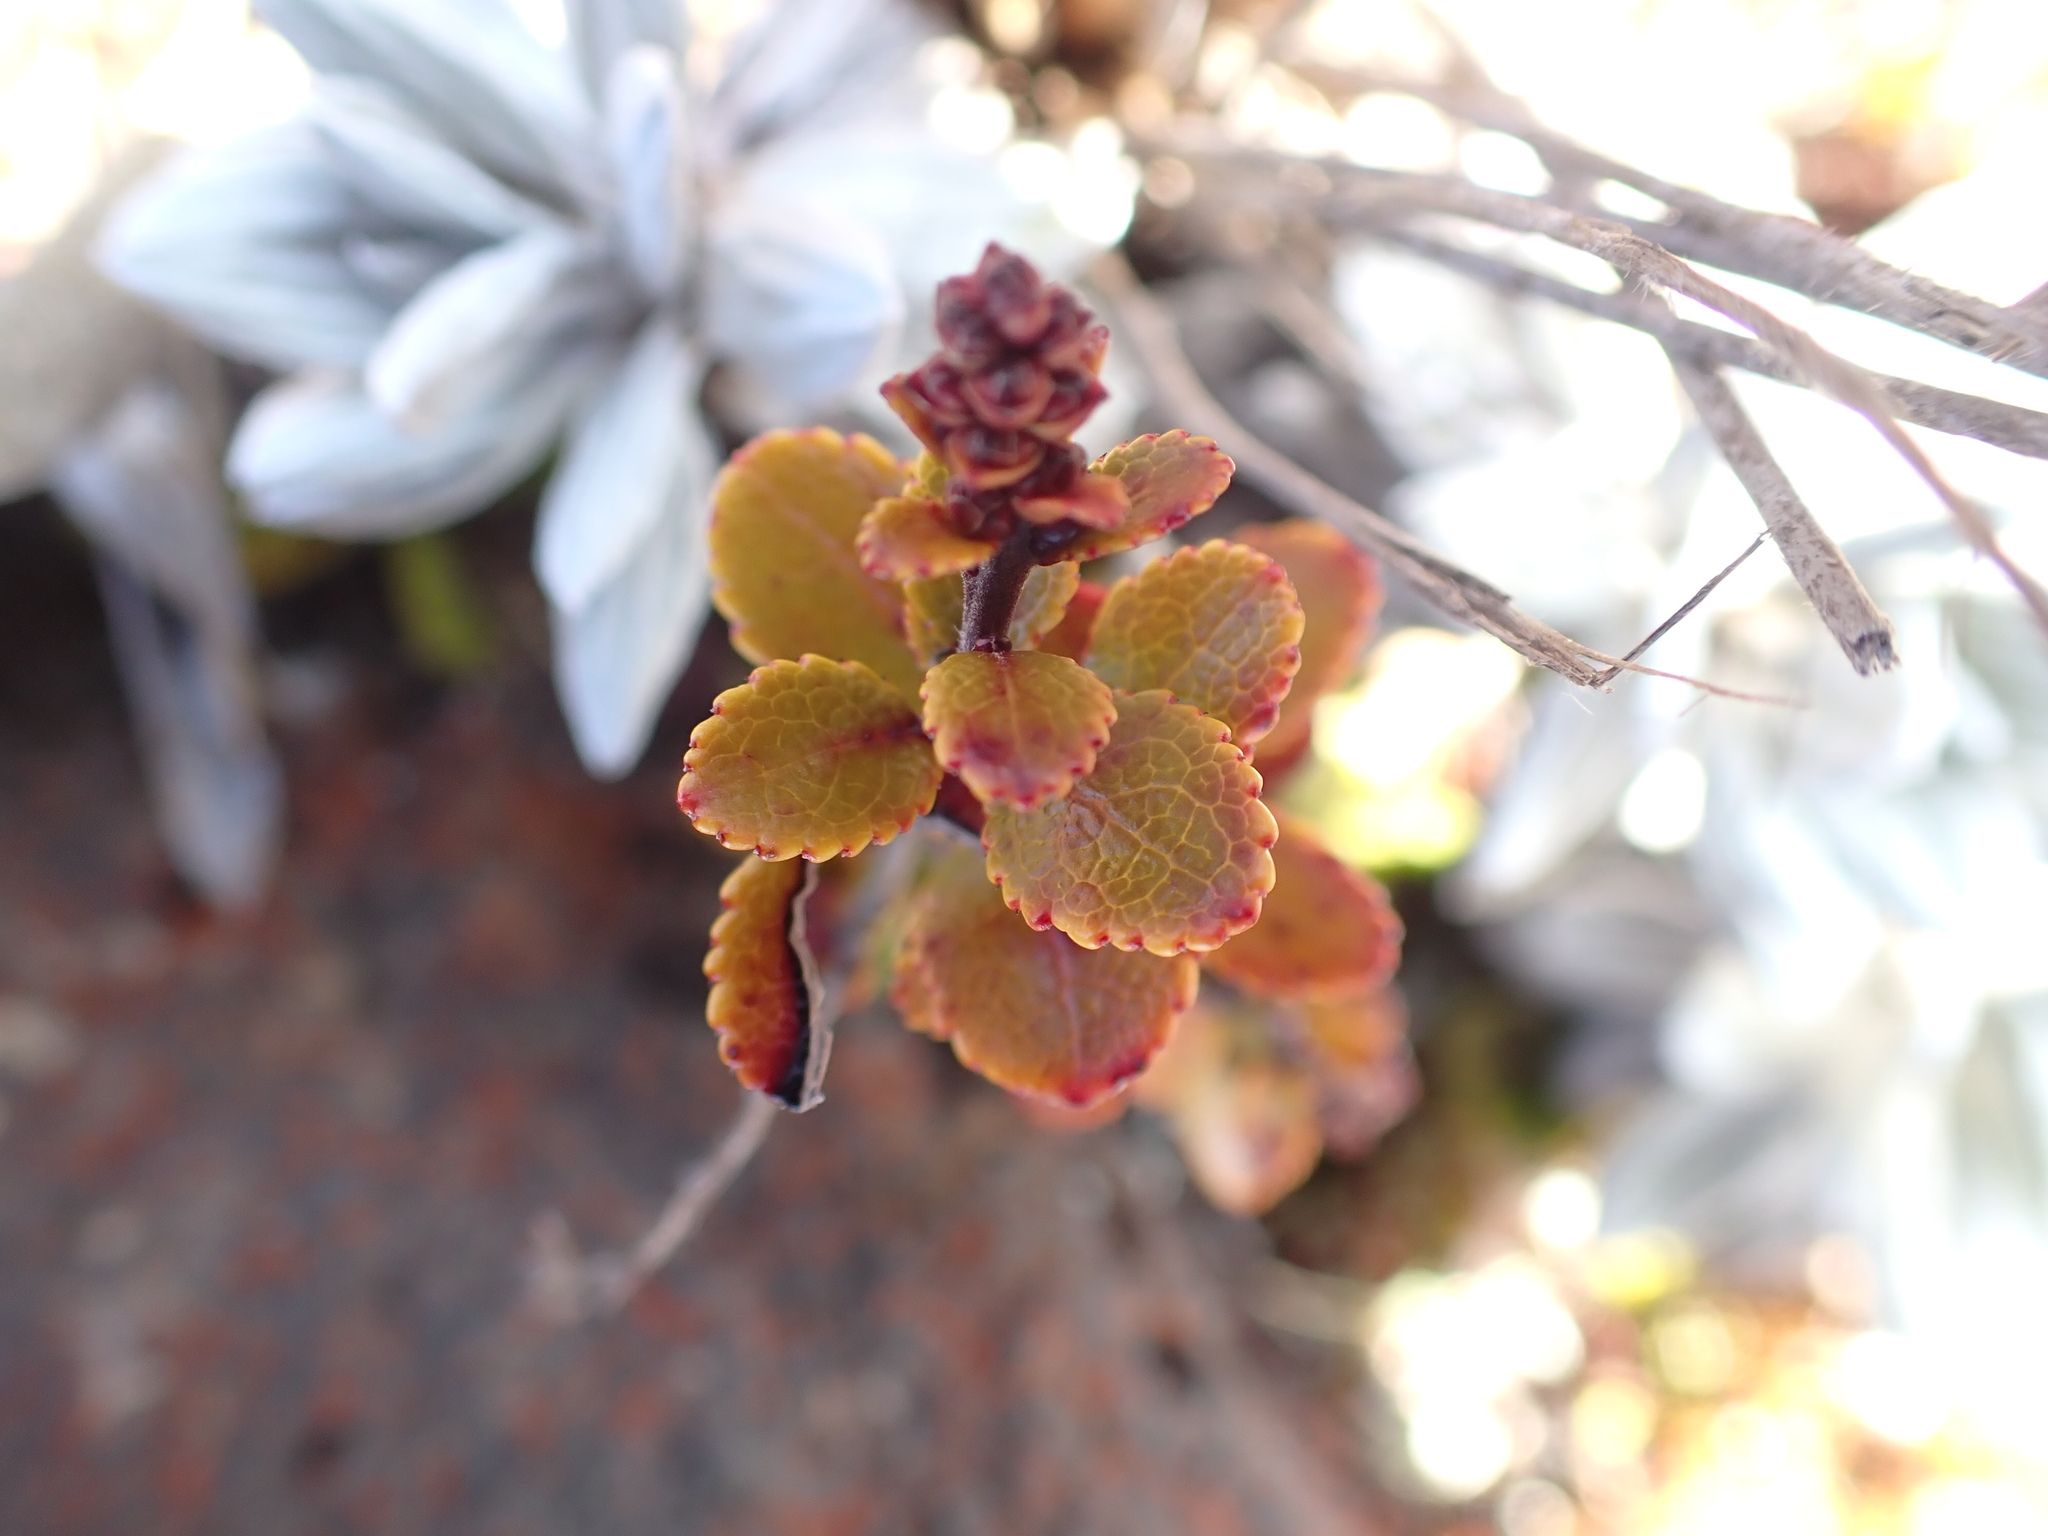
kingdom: Plantae
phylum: Tracheophyta
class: Magnoliopsida
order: Ericales
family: Ericaceae
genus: Gaultheria
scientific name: Gaultheria colensoi
